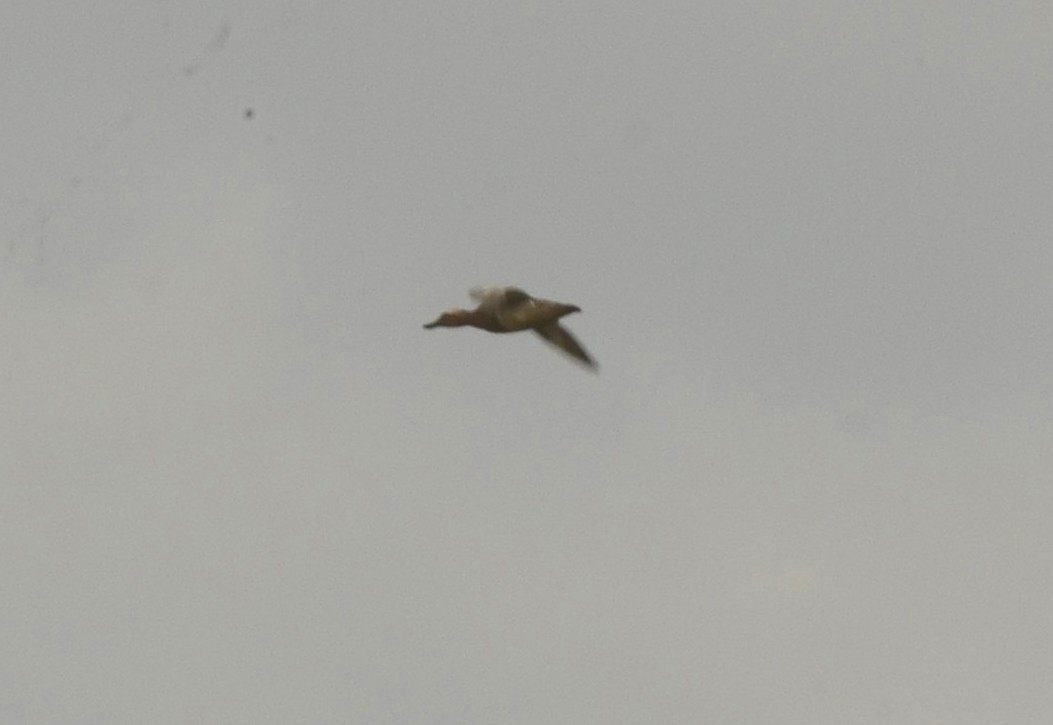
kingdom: Animalia
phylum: Chordata
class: Aves
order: Anseriformes
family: Anatidae
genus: Spatula
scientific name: Spatula querquedula
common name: Garganey
